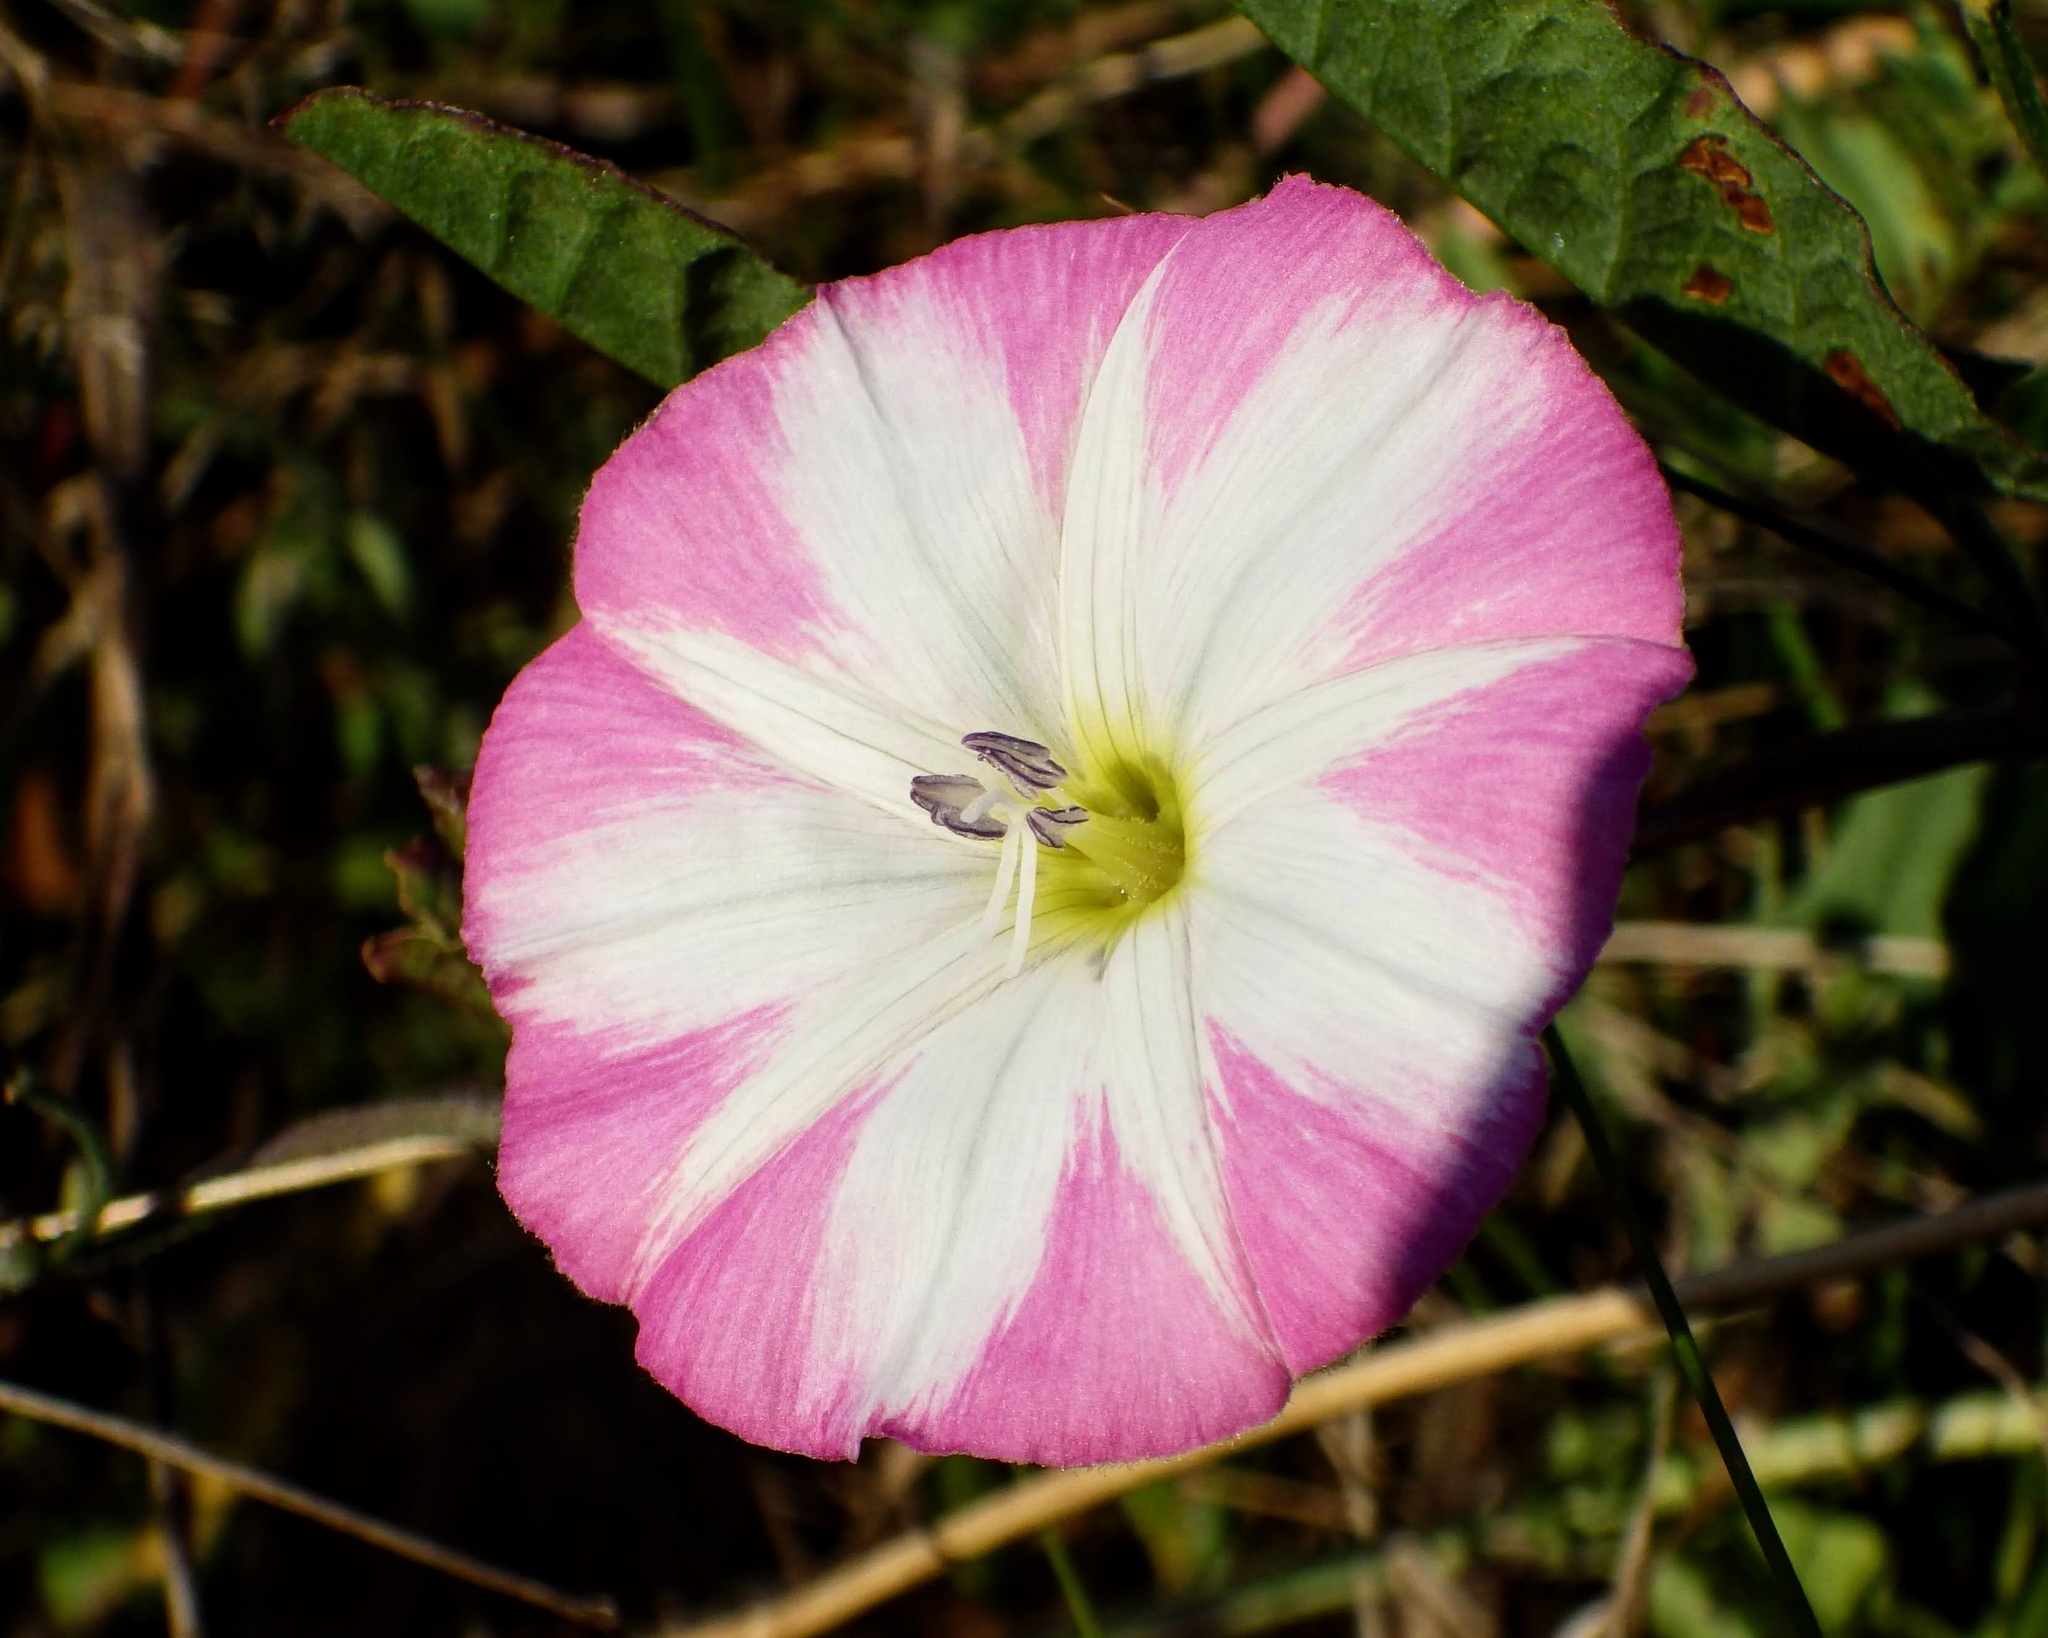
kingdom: Plantae
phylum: Tracheophyta
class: Magnoliopsida
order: Solanales
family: Convolvulaceae
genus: Convolvulus
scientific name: Convolvulus arvensis
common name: Field bindweed
